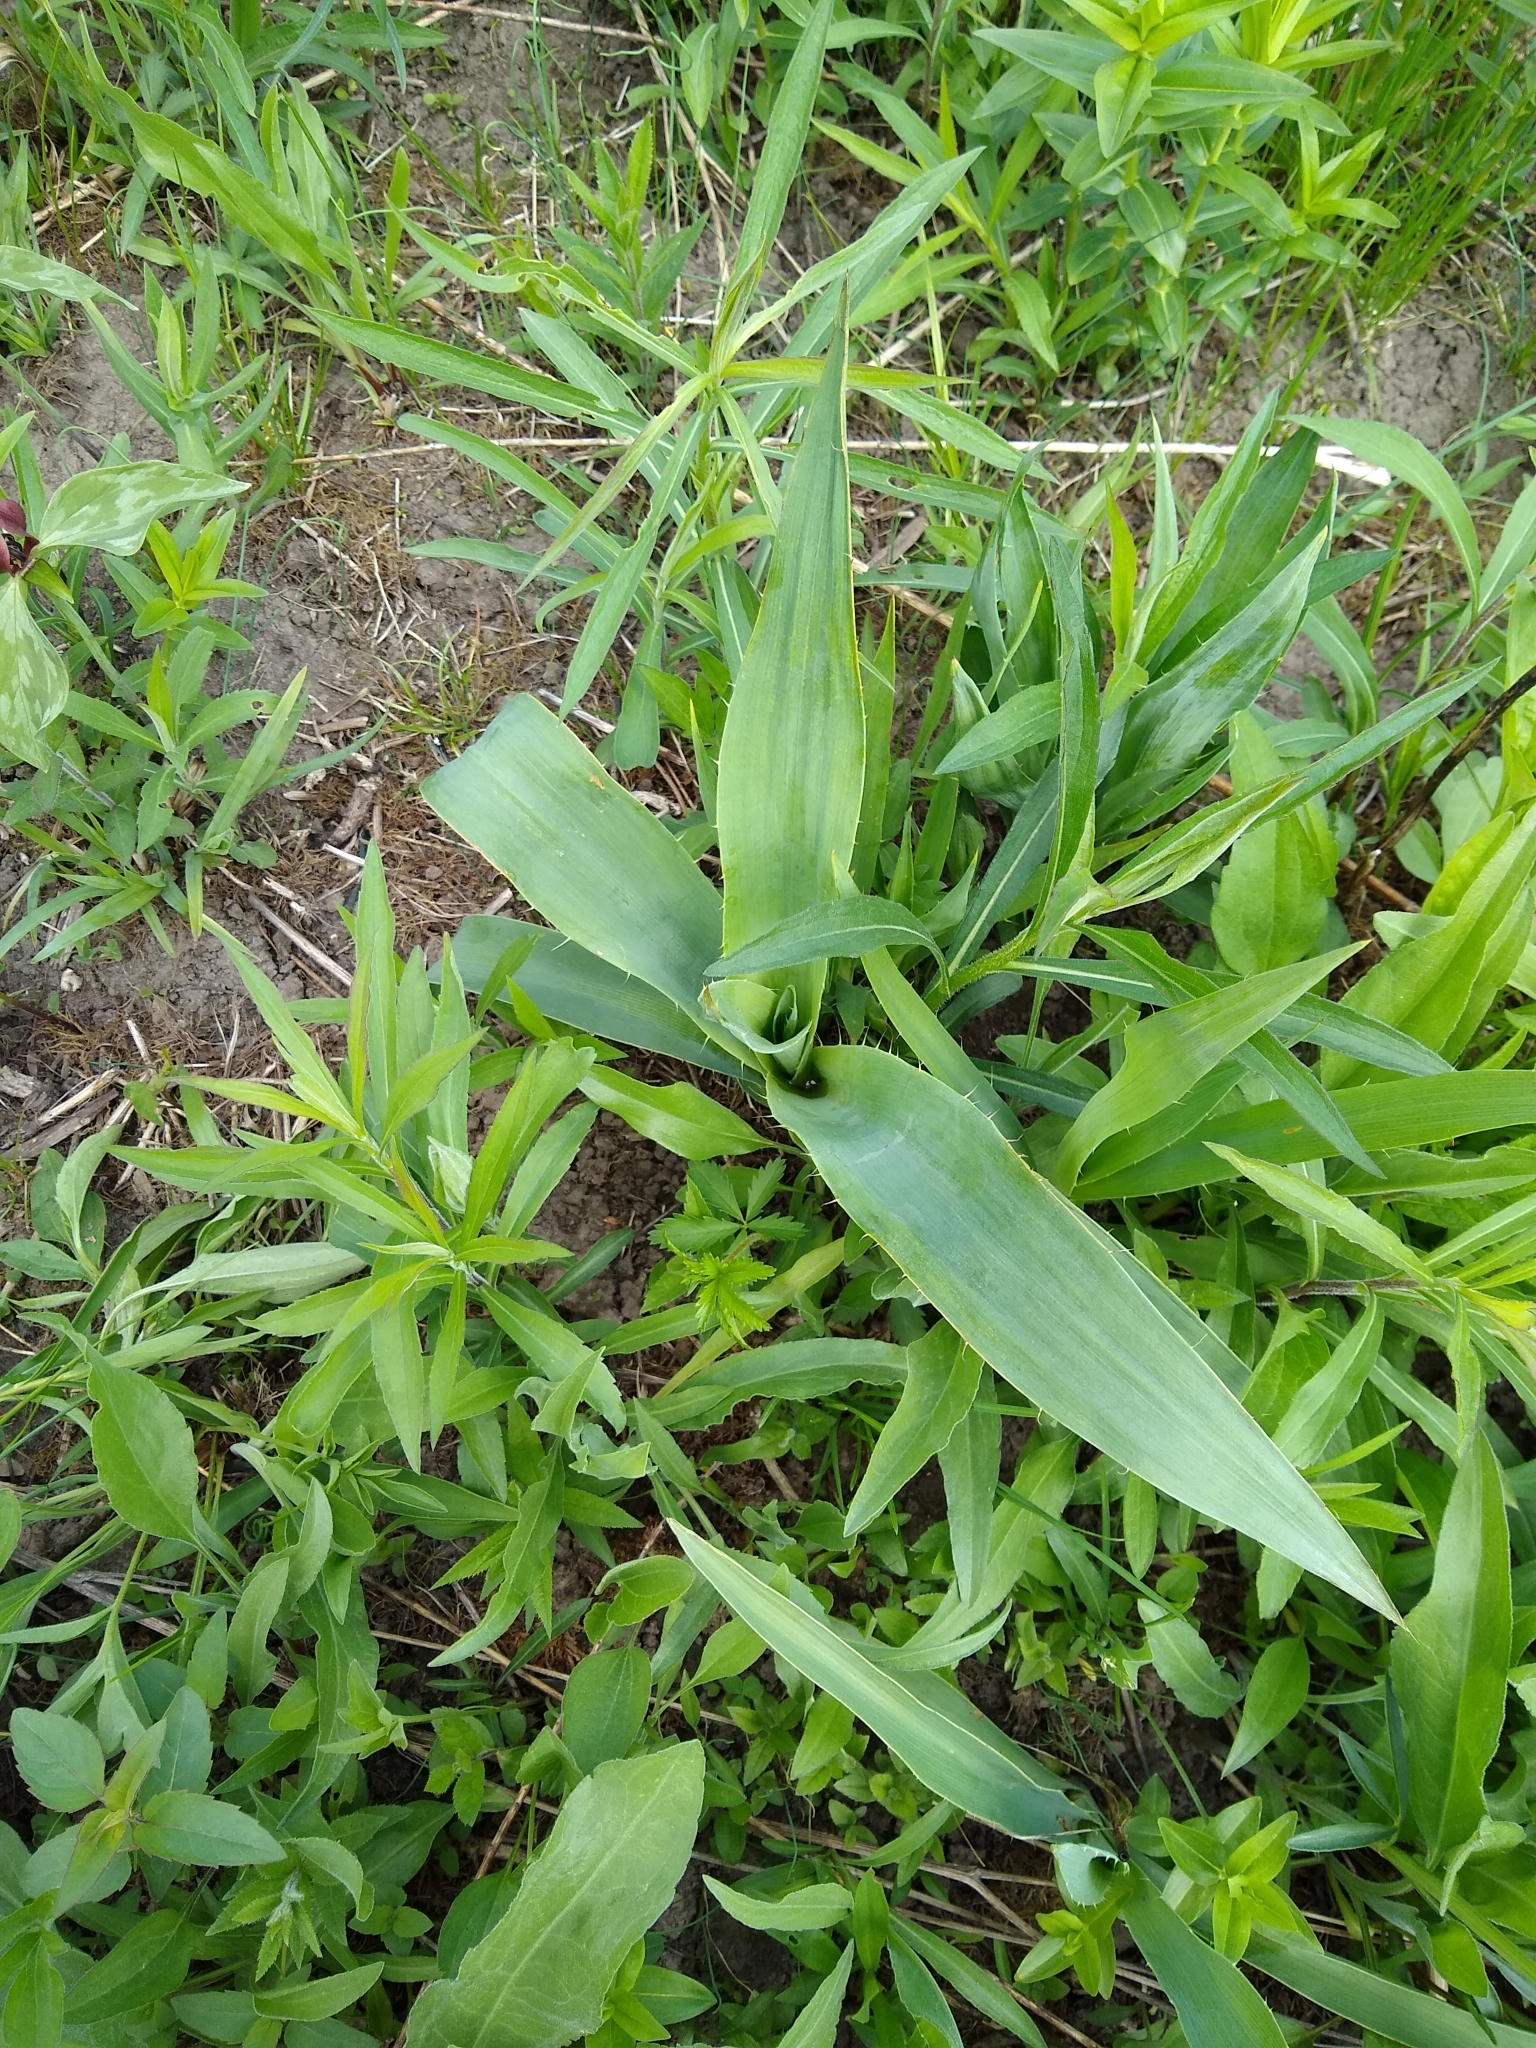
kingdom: Plantae
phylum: Tracheophyta
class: Magnoliopsida
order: Apiales
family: Apiaceae
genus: Eryngium
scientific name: Eryngium yuccifolium
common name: Button eryngo
